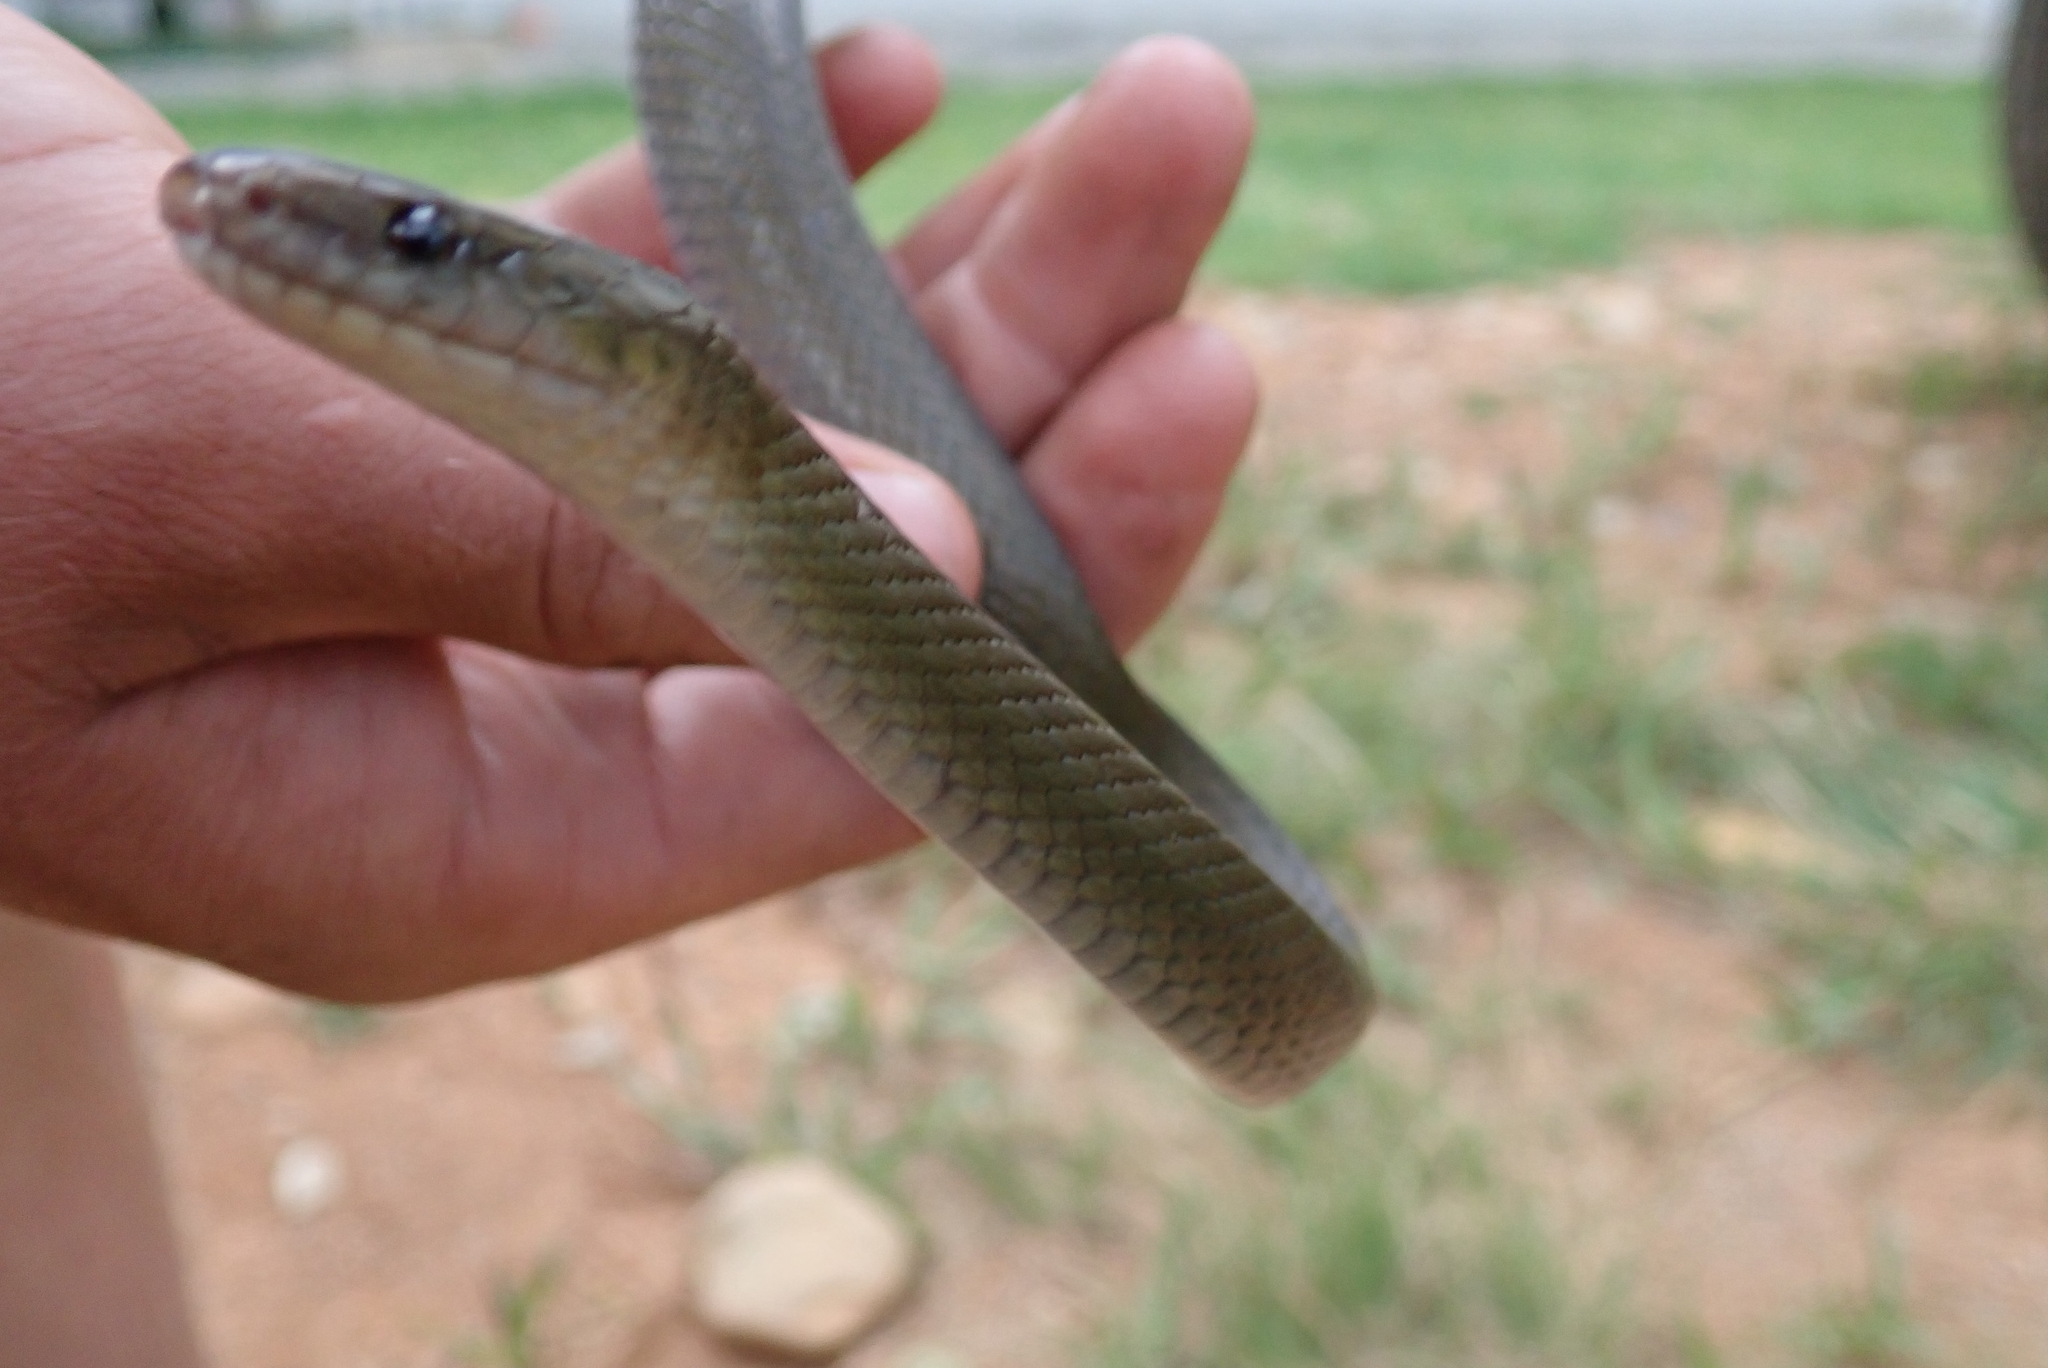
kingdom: Animalia
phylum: Chordata
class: Squamata
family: Lamprophiidae
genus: Lycodonomorphus
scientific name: Lycodonomorphus inornatus
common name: Black house snake
